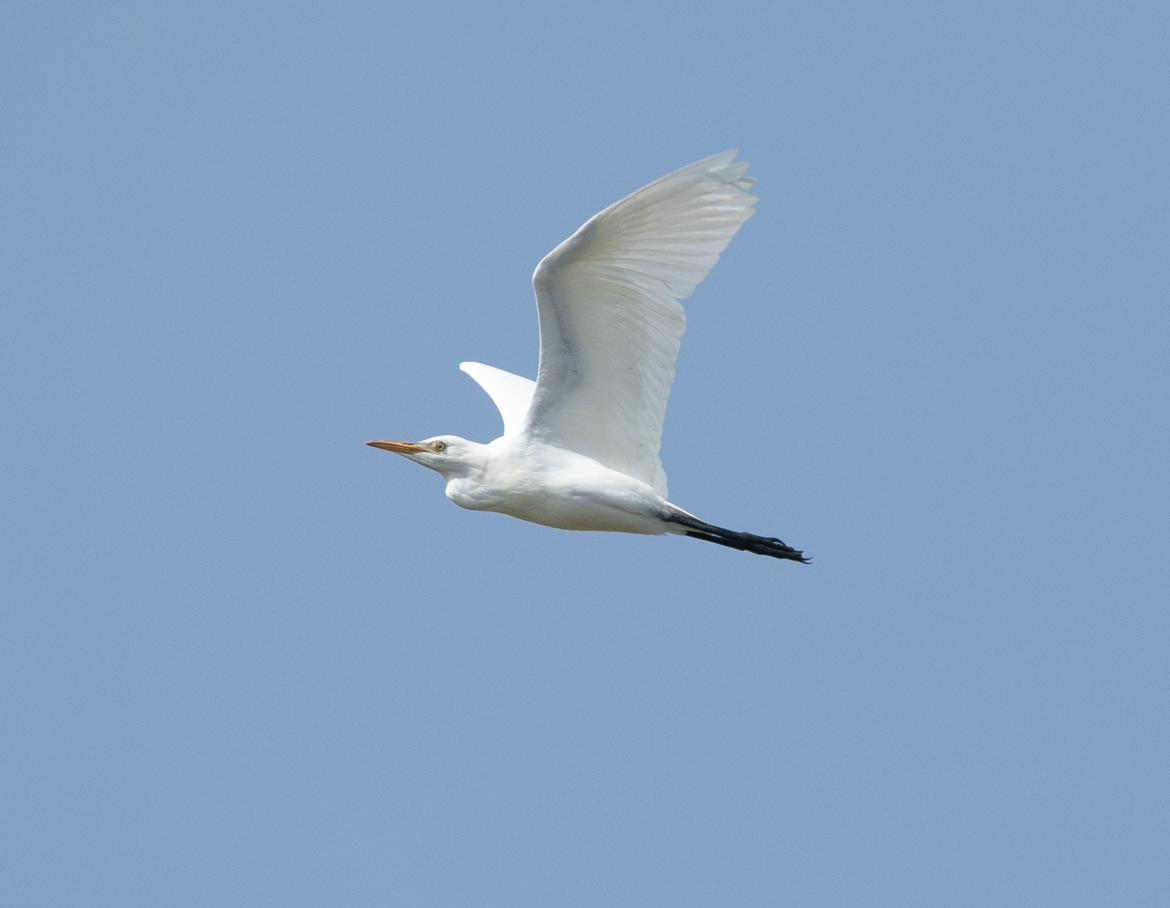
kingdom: Animalia
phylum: Chordata
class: Aves
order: Pelecaniformes
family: Ardeidae
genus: Bubulcus
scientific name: Bubulcus ibis
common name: Cattle egret
